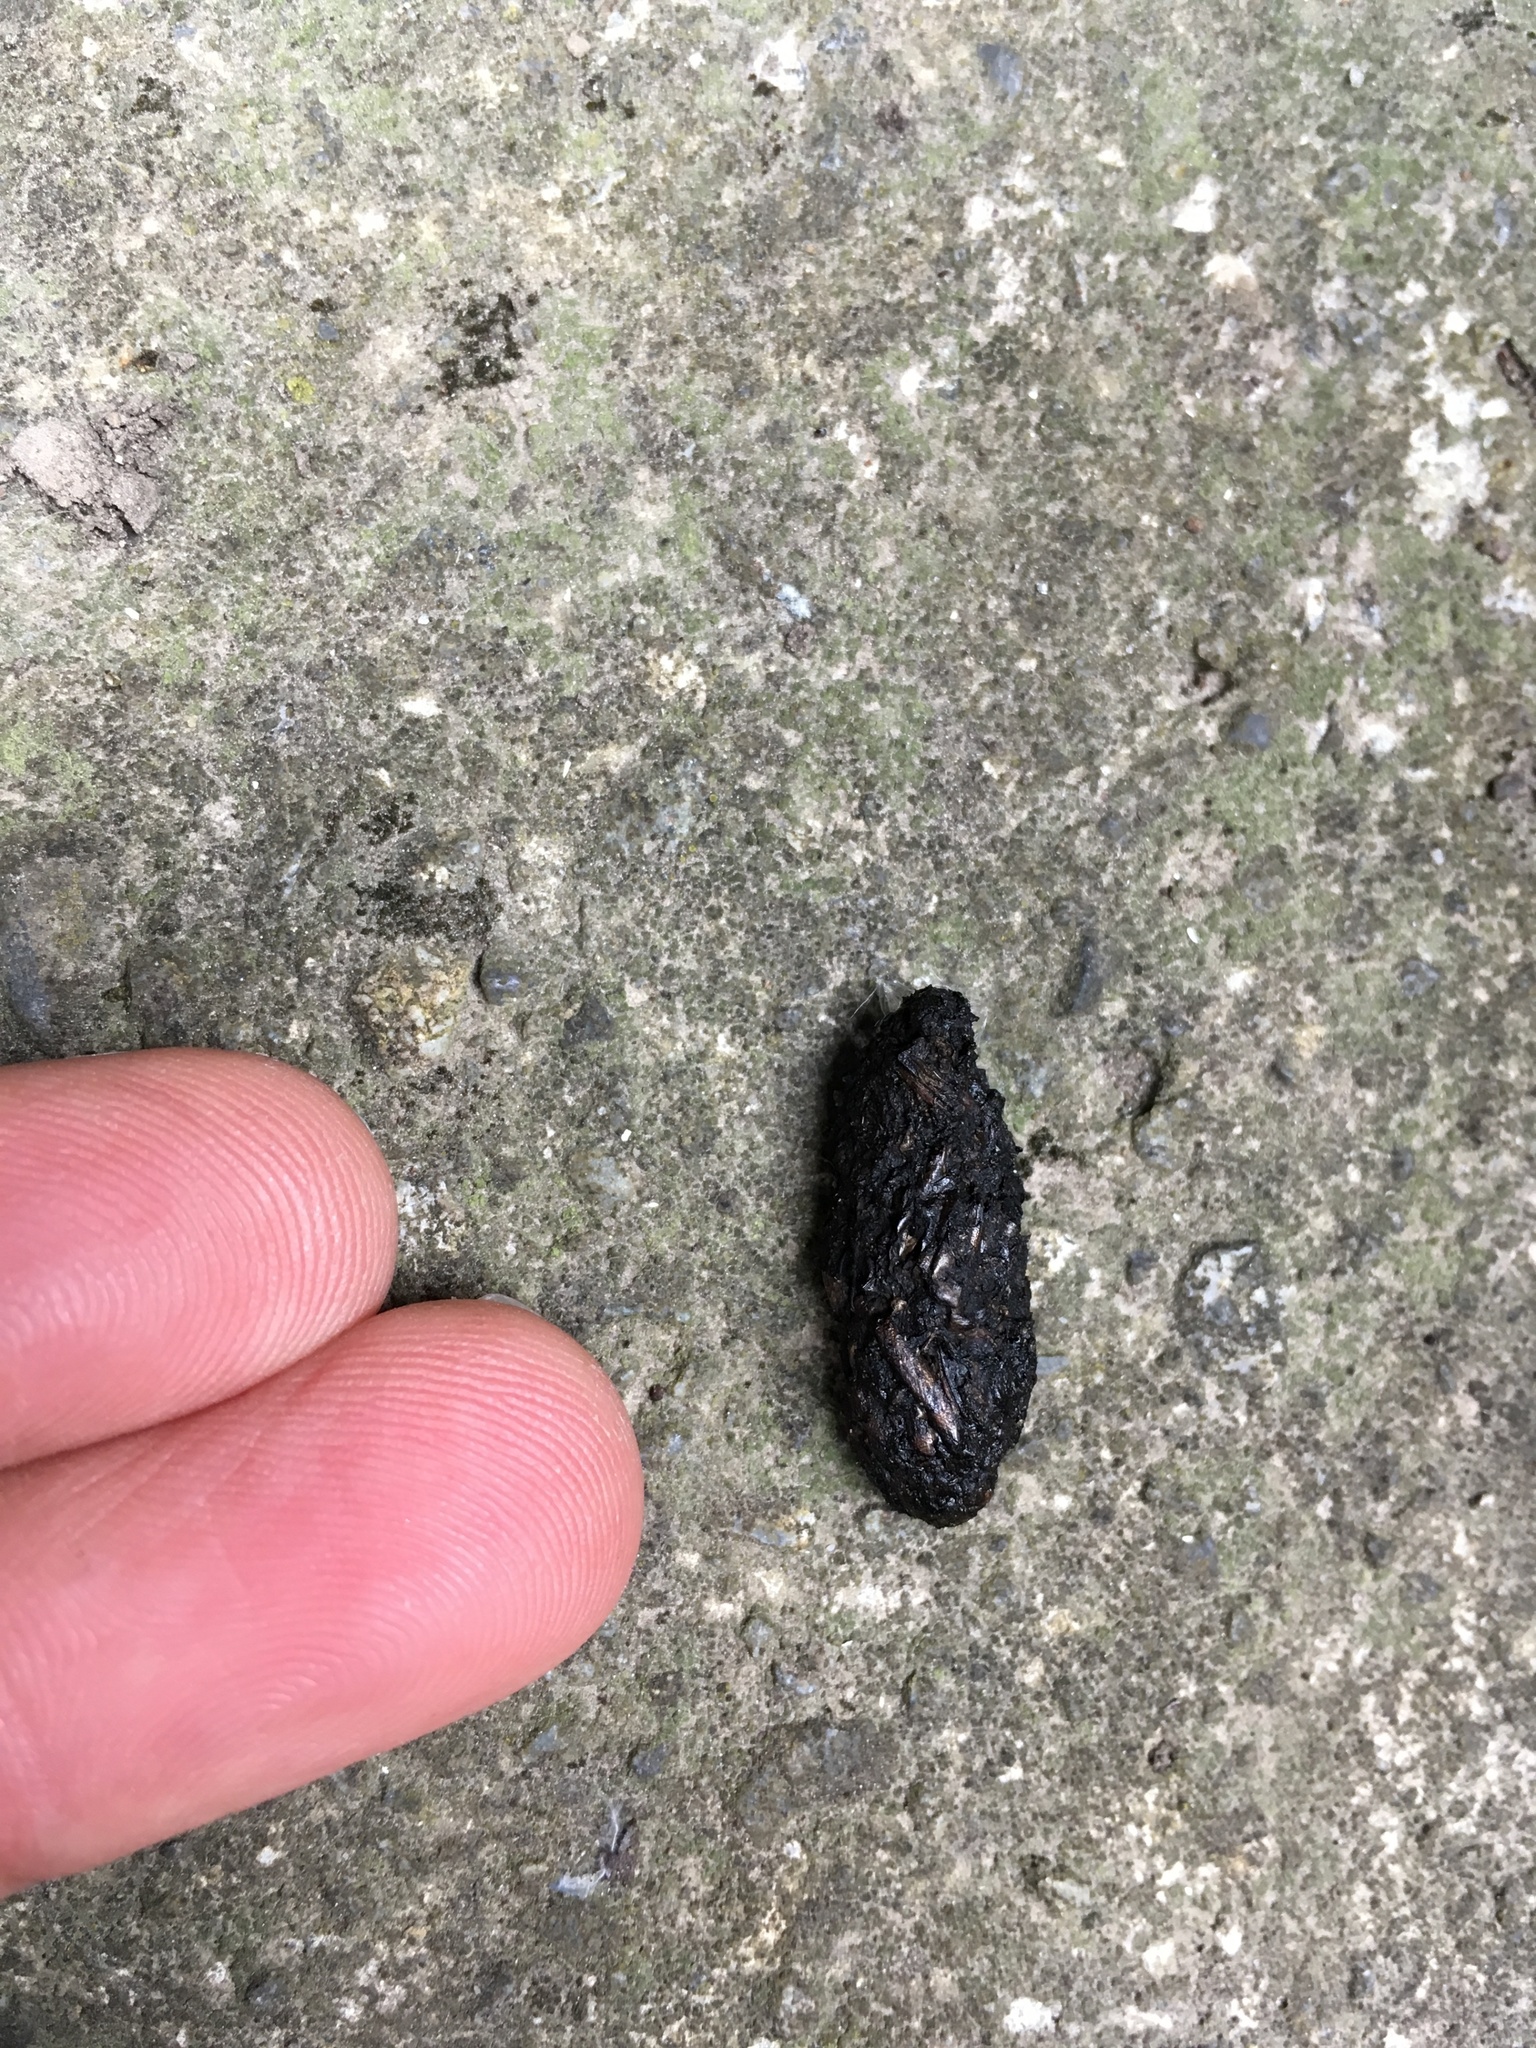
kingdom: Animalia
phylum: Chordata
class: Mammalia
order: Erinaceomorpha
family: Erinaceidae
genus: Erinaceus
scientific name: Erinaceus europaeus
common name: West european hedgehog
